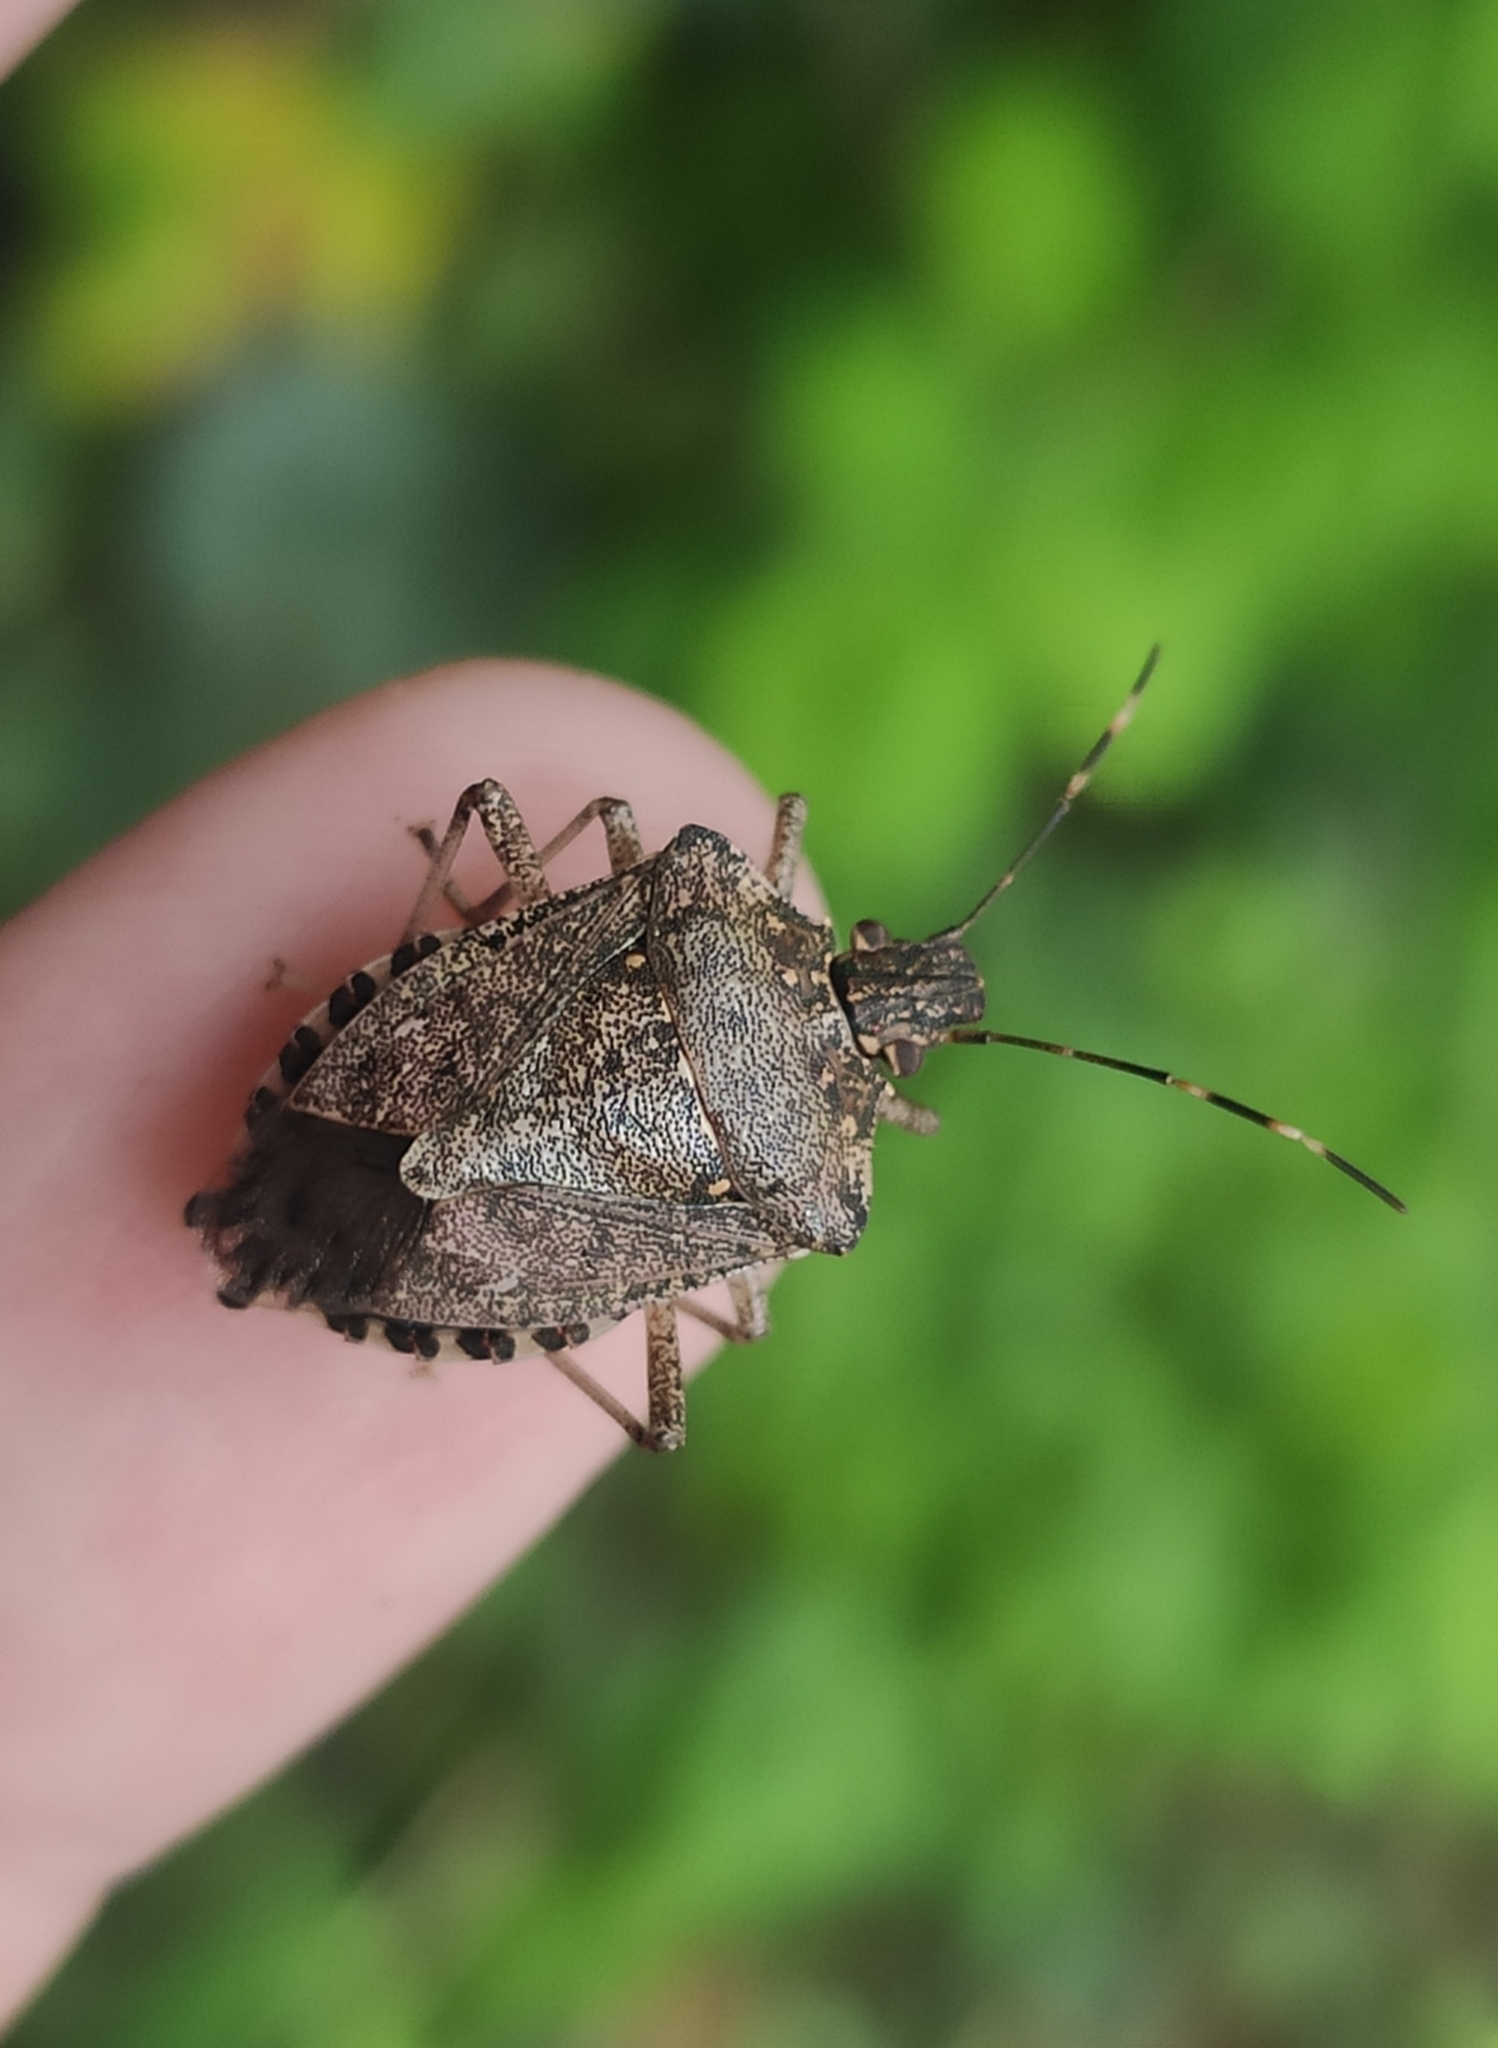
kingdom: Animalia
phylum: Arthropoda
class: Insecta
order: Hemiptera
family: Pentatomidae
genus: Halyomorpha
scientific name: Halyomorpha halys
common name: Brown marmorated stink bug
